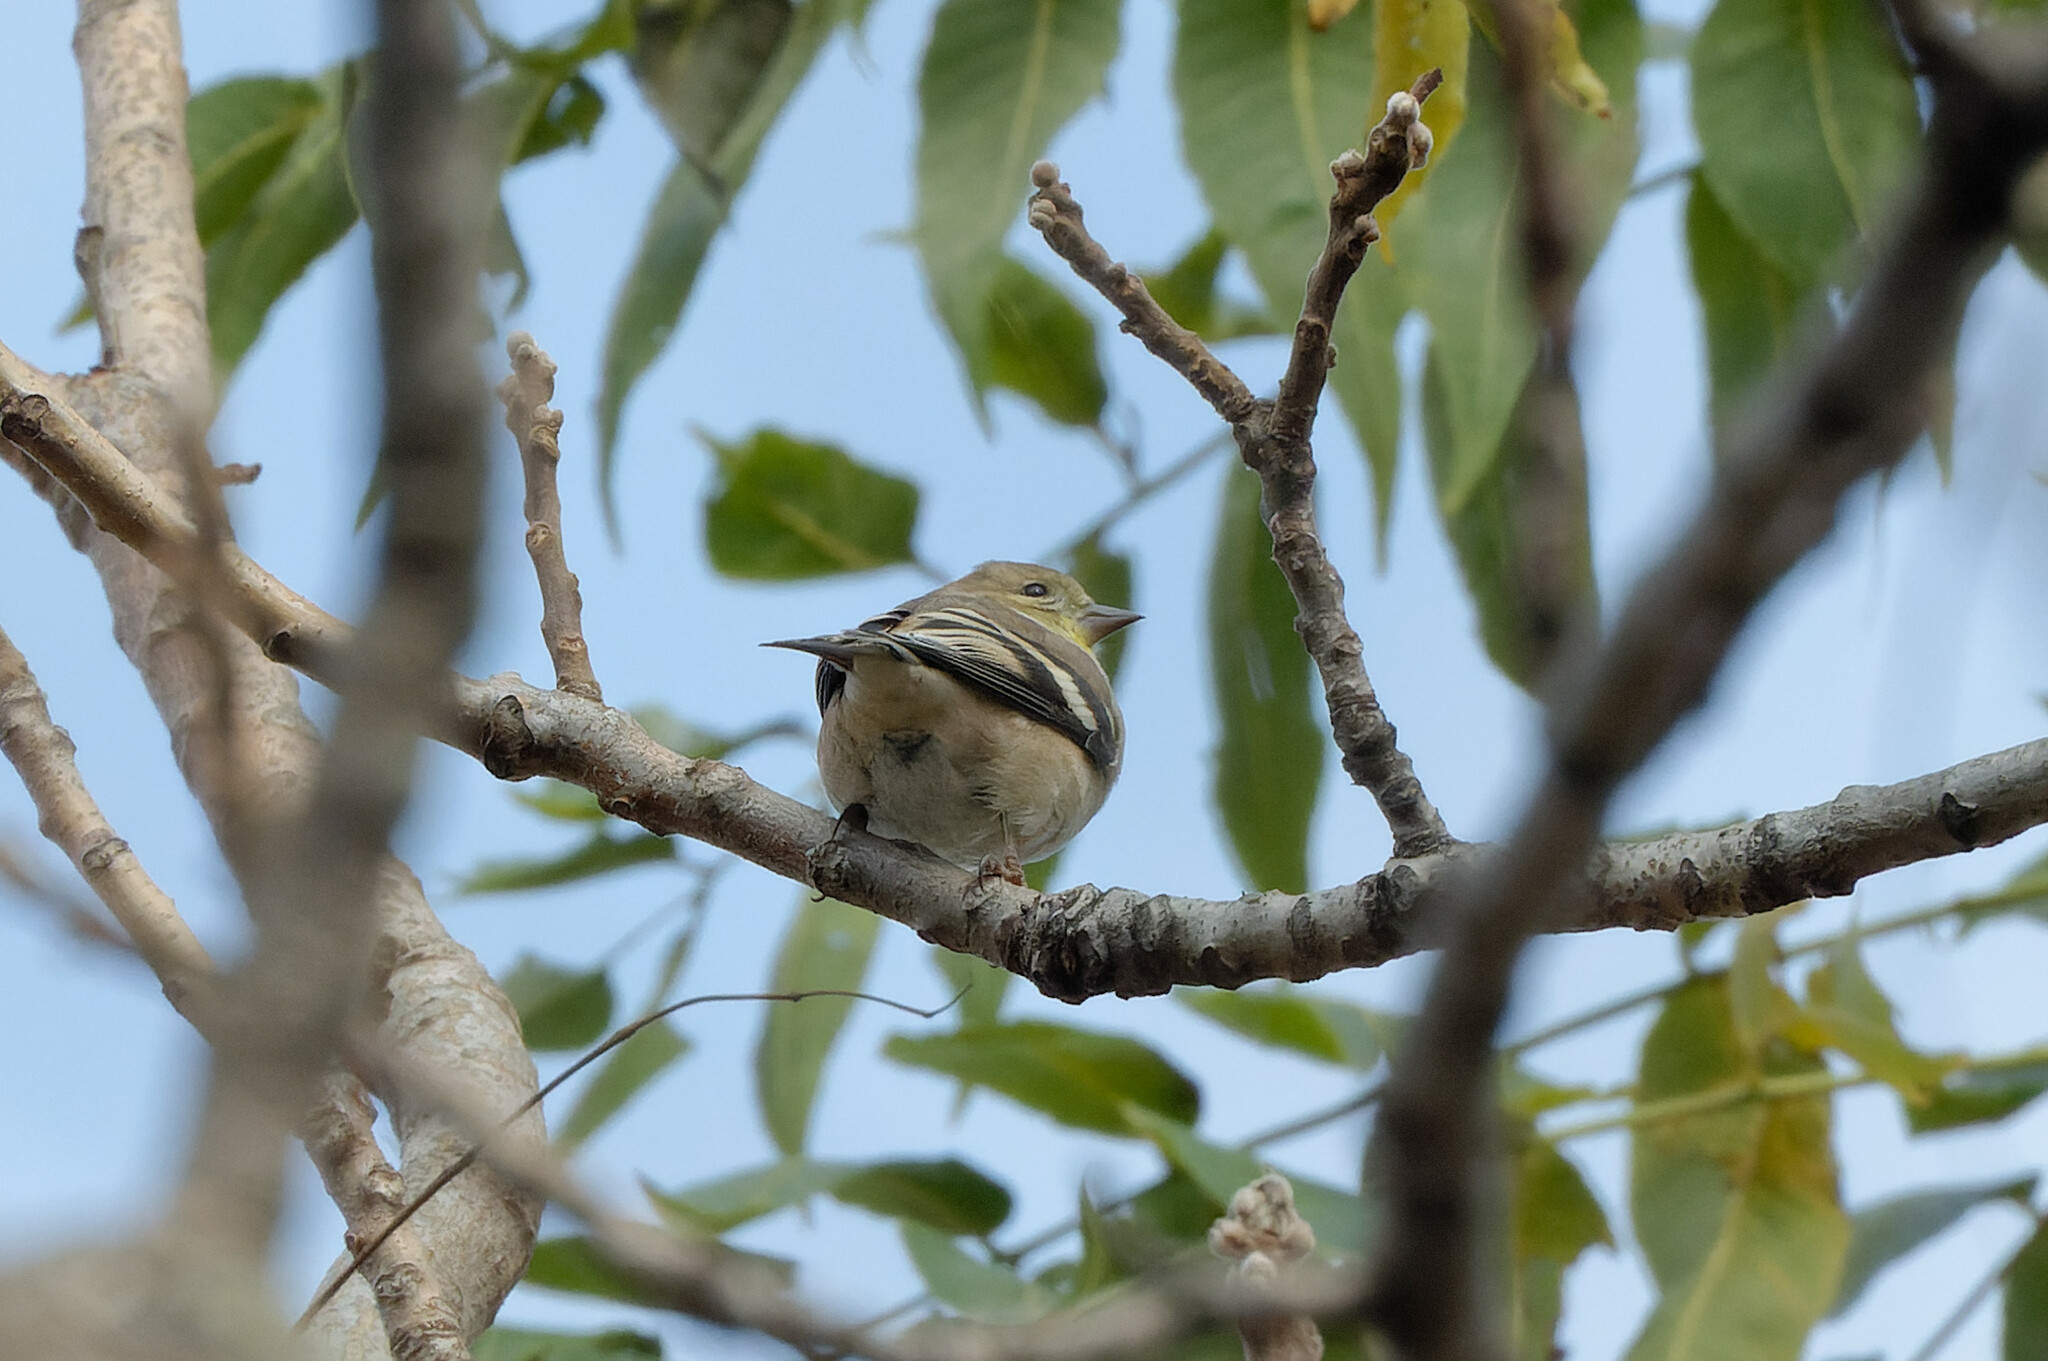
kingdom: Animalia
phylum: Chordata
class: Aves
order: Passeriformes
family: Fringillidae
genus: Spinus
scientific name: Spinus tristis
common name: American goldfinch
